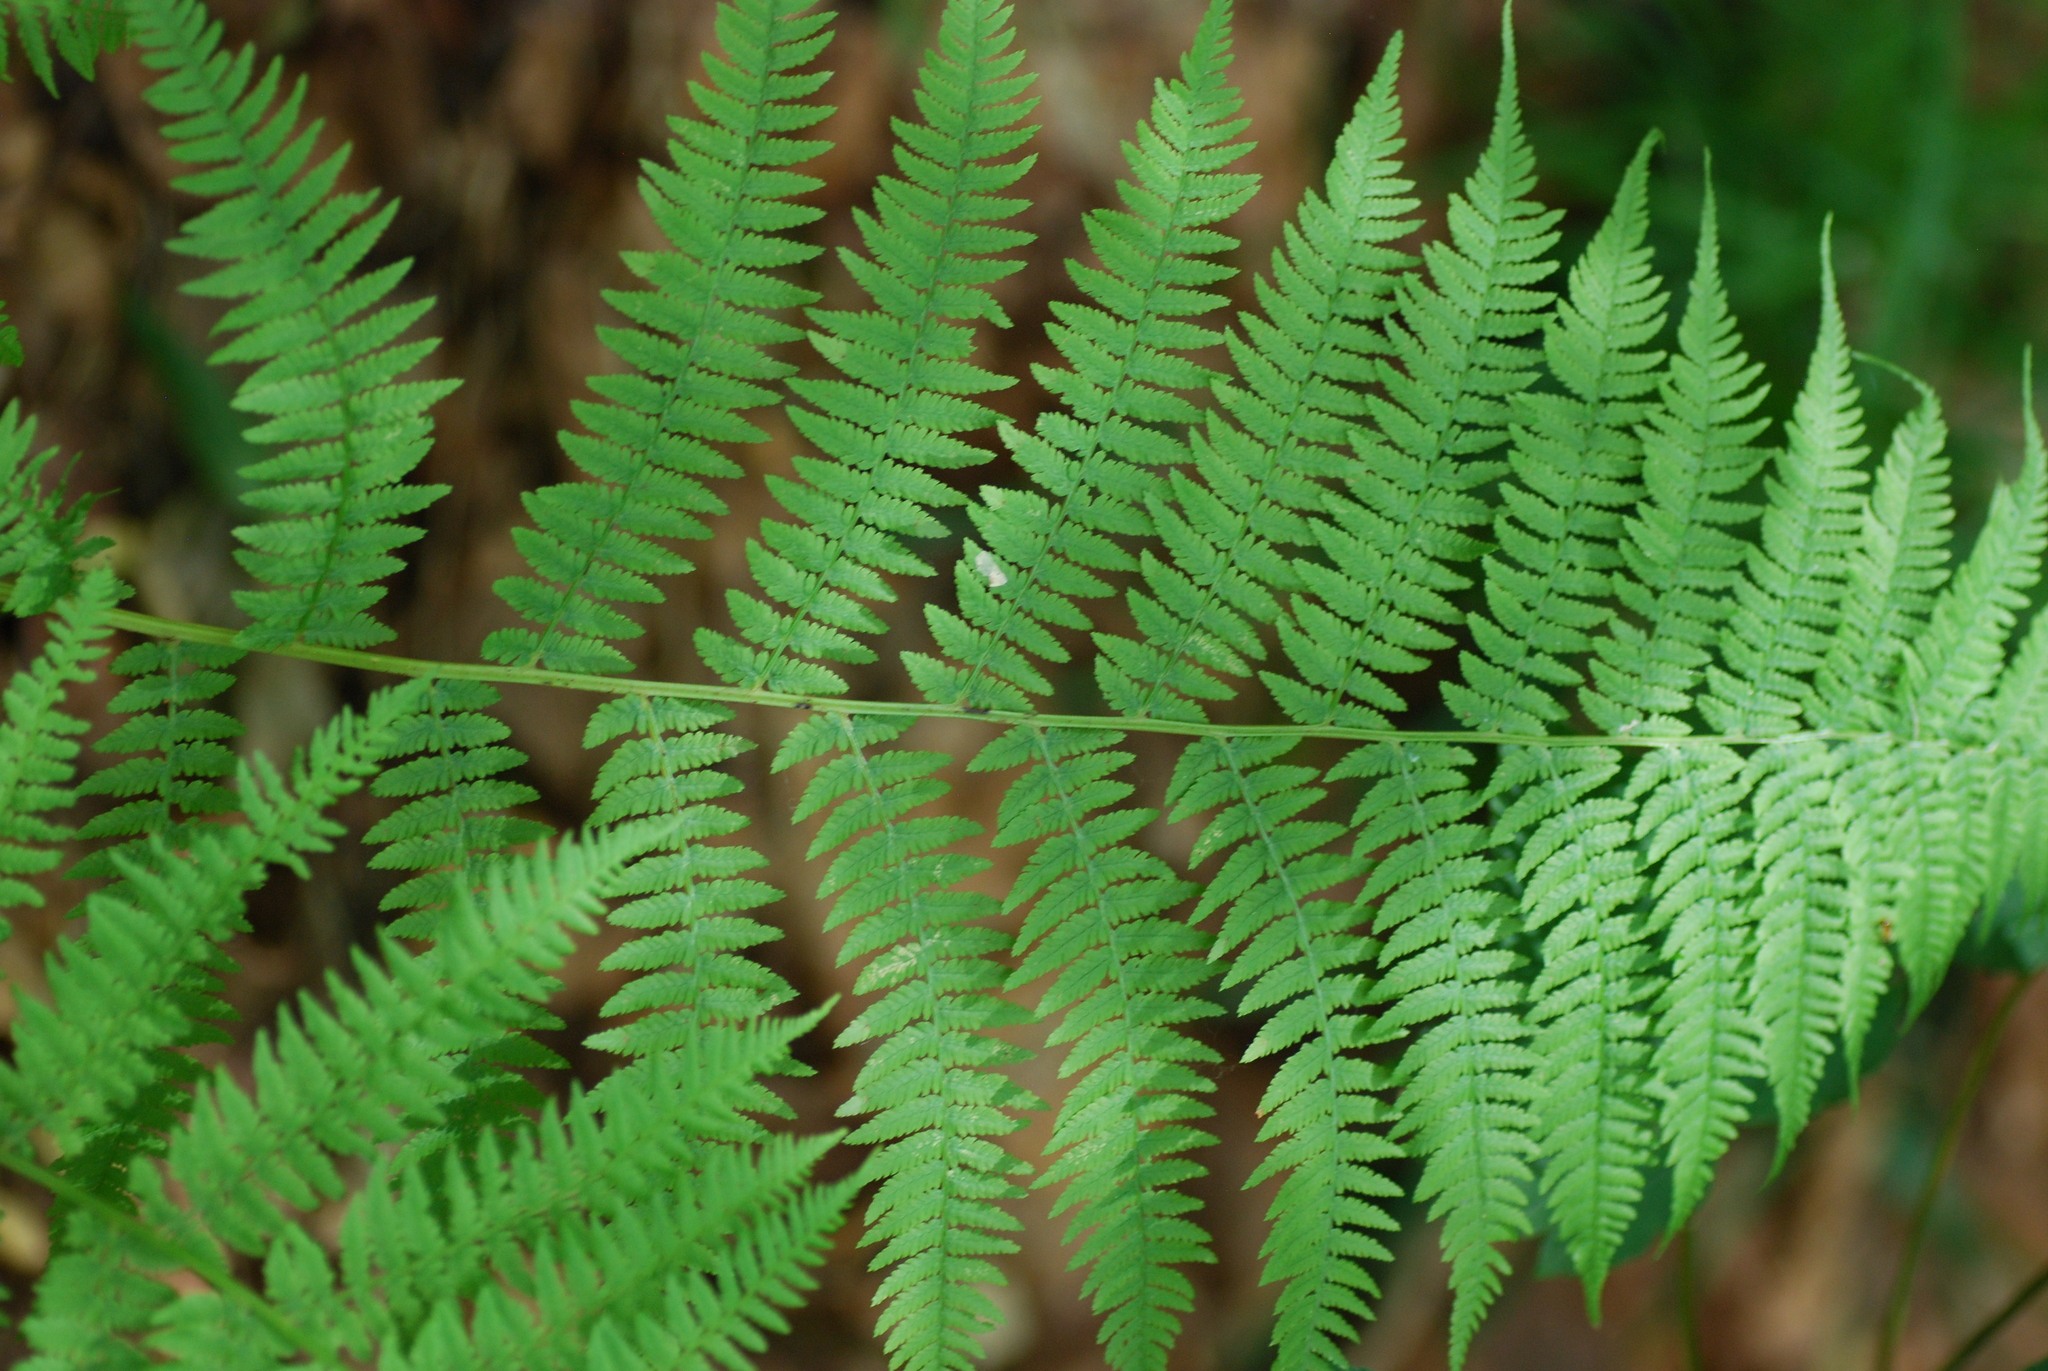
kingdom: Plantae
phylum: Tracheophyta
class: Polypodiopsida
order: Polypodiales
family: Athyriaceae
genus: Athyrium
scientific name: Athyrium filix-femina
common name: Lady fern
